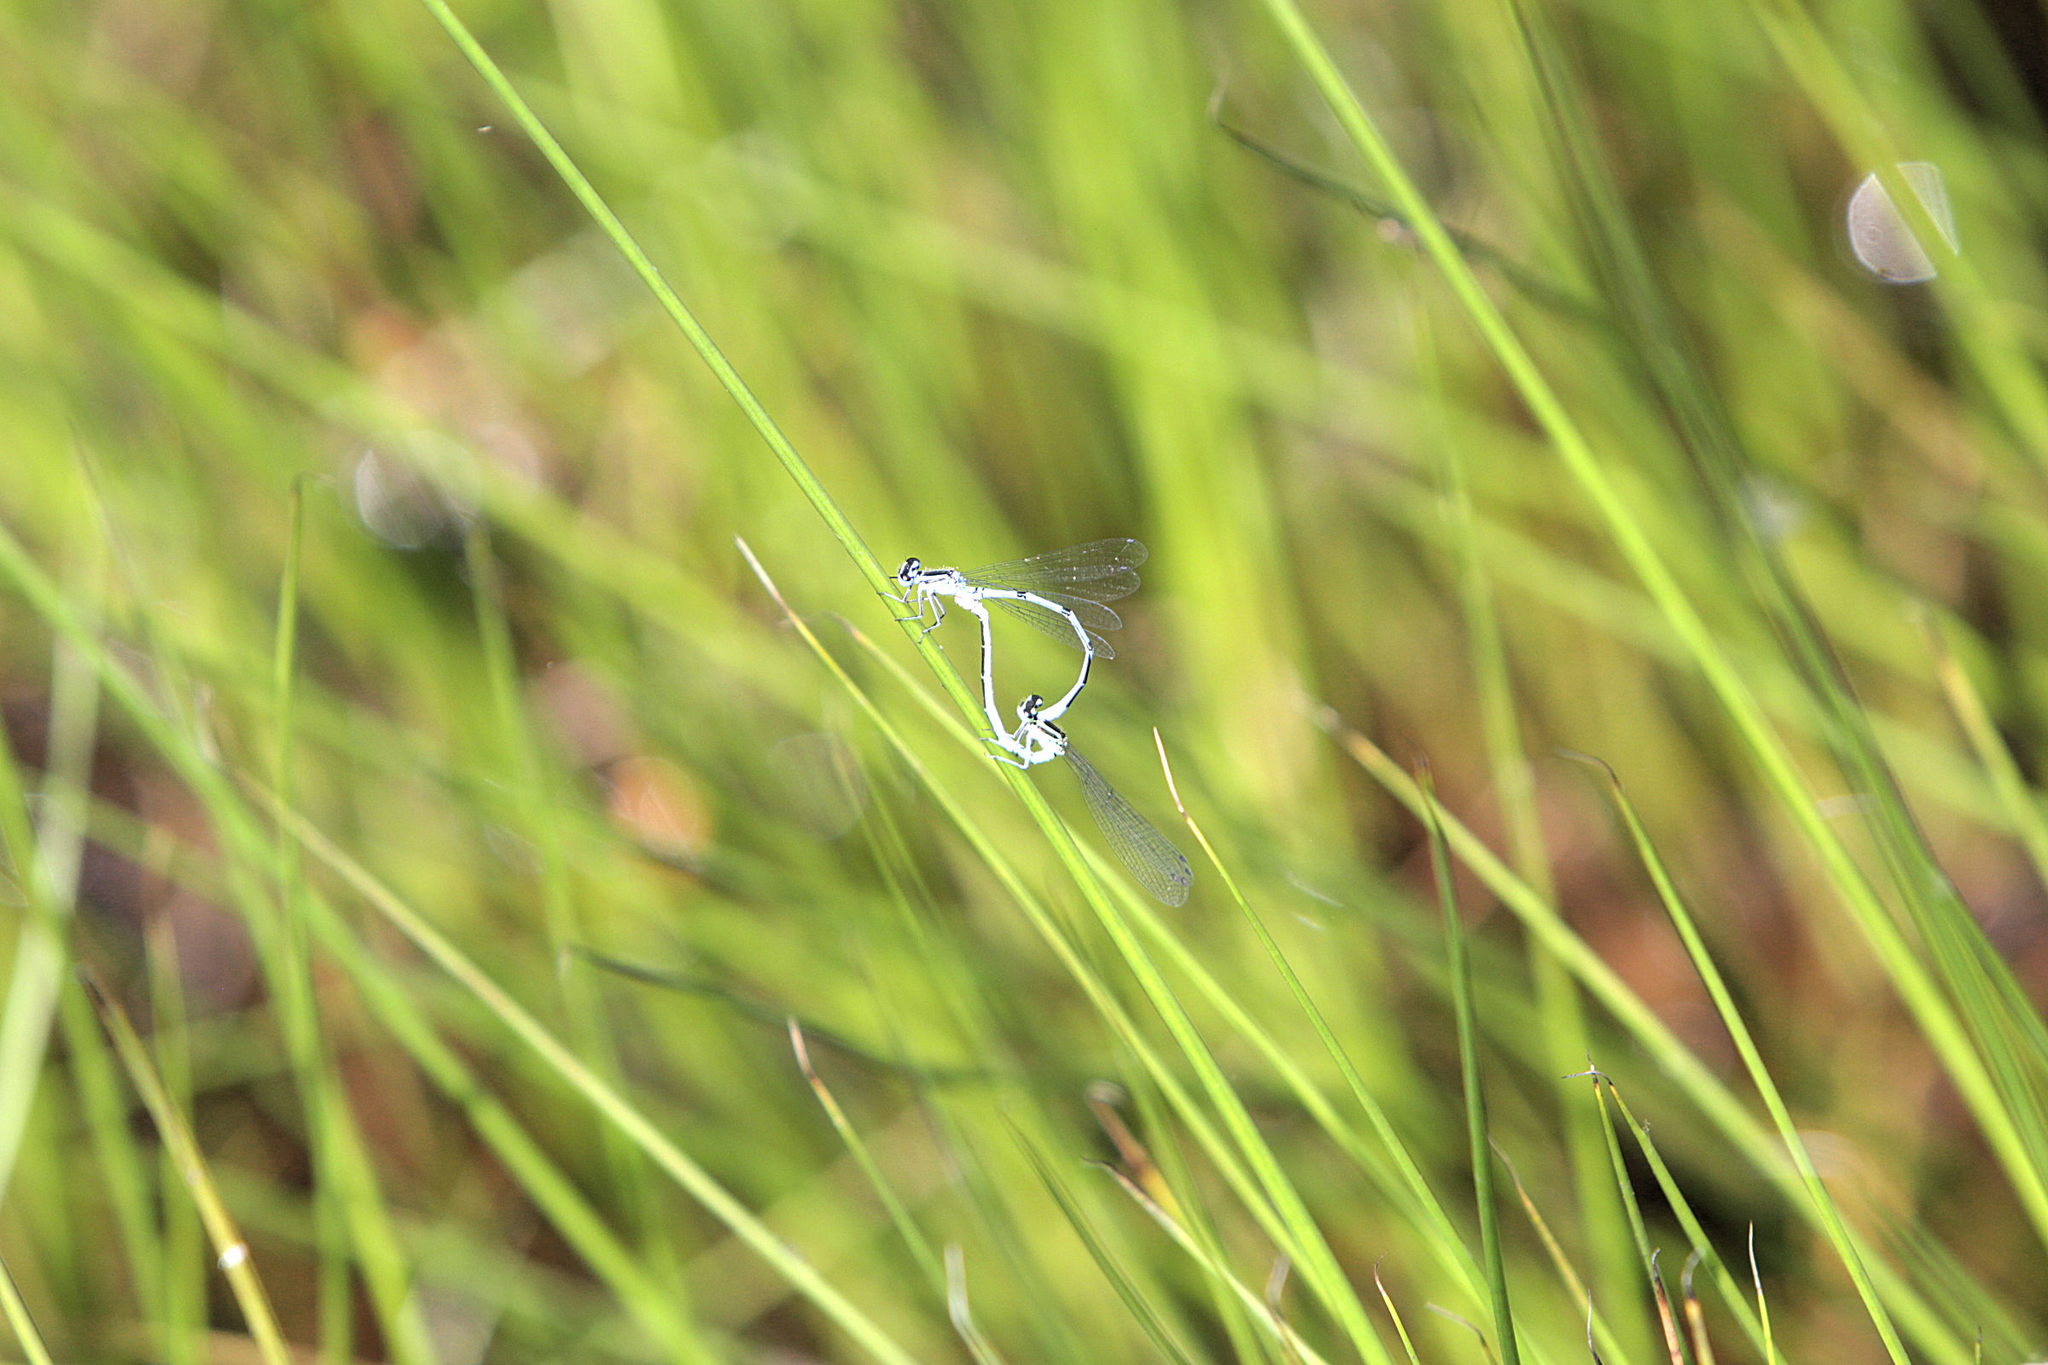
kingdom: Animalia
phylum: Arthropoda
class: Insecta
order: Odonata
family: Coenagrionidae
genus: Coenagrion
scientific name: Coenagrion puella
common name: Azure damselfly
